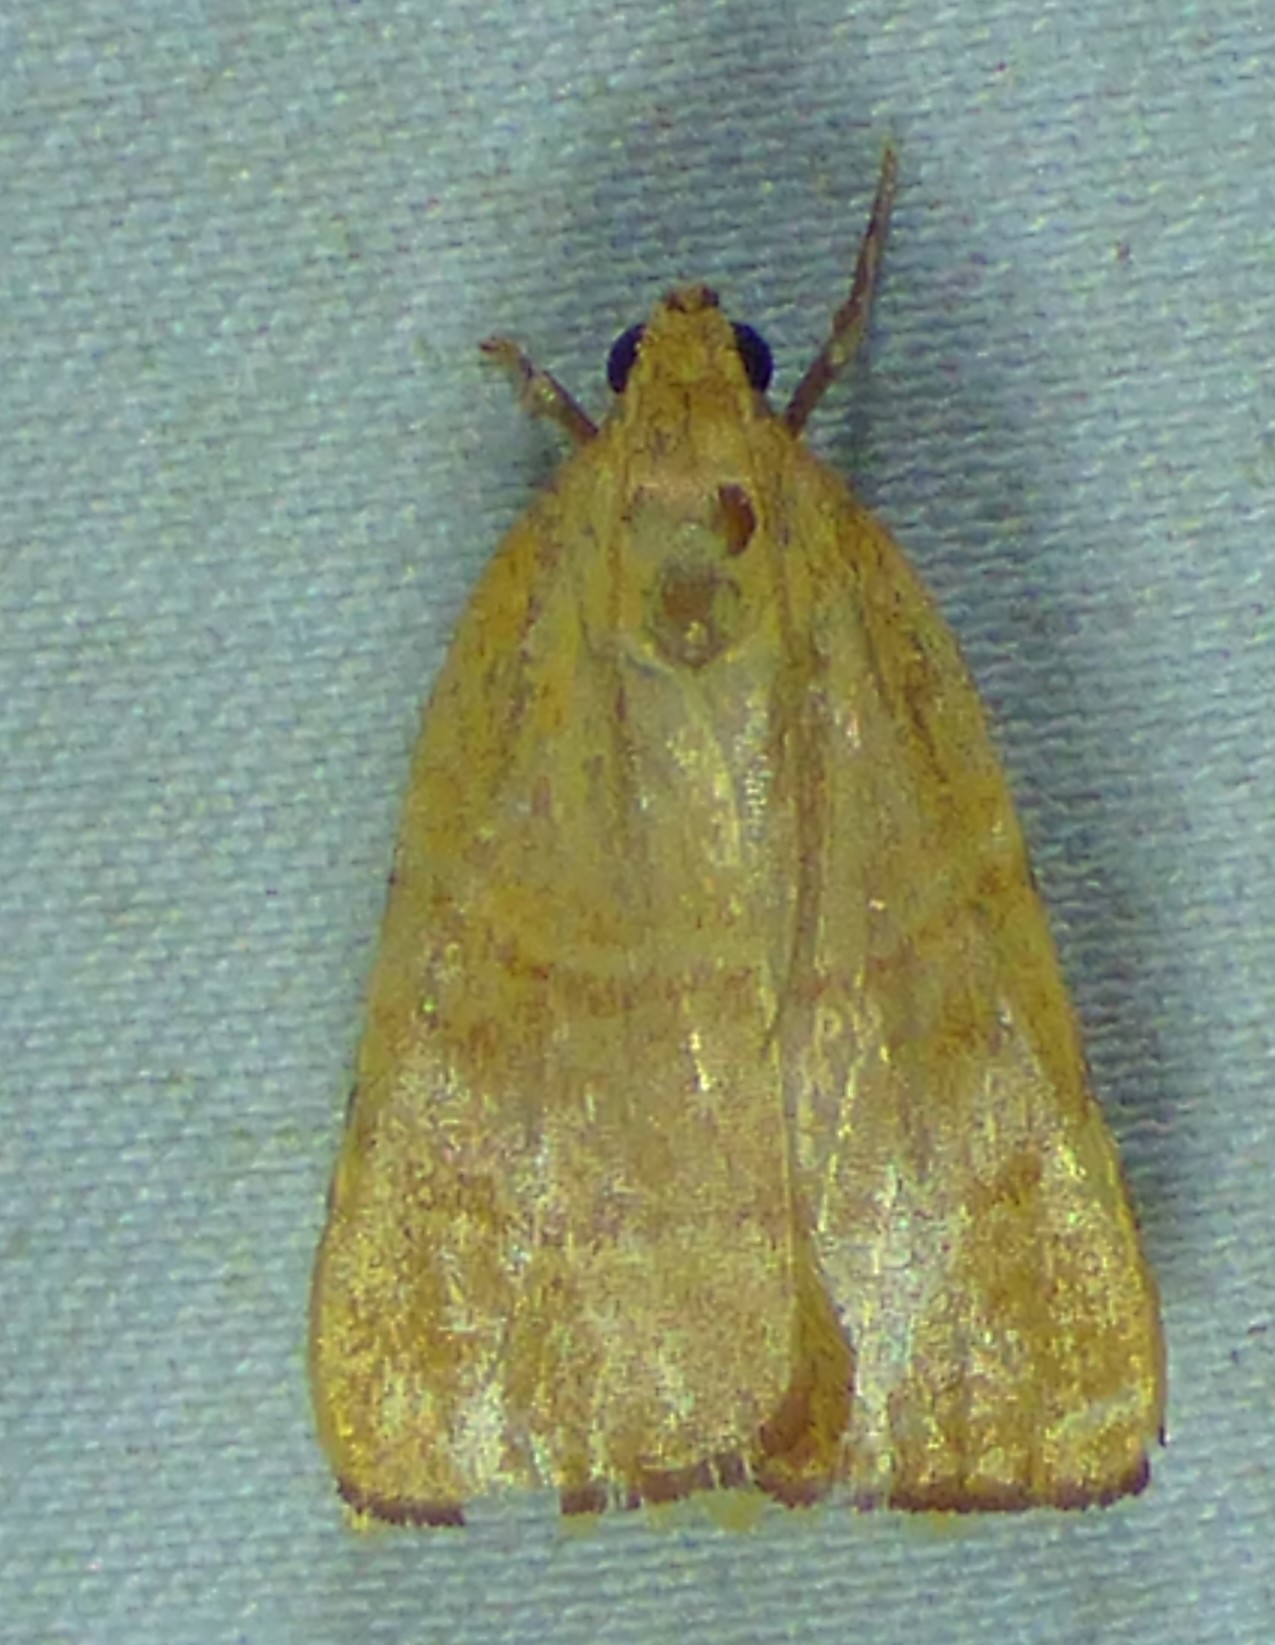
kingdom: Animalia
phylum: Arthropoda
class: Insecta
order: Lepidoptera
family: Pyralidae
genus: Parachma
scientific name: Parachma ochracealis
